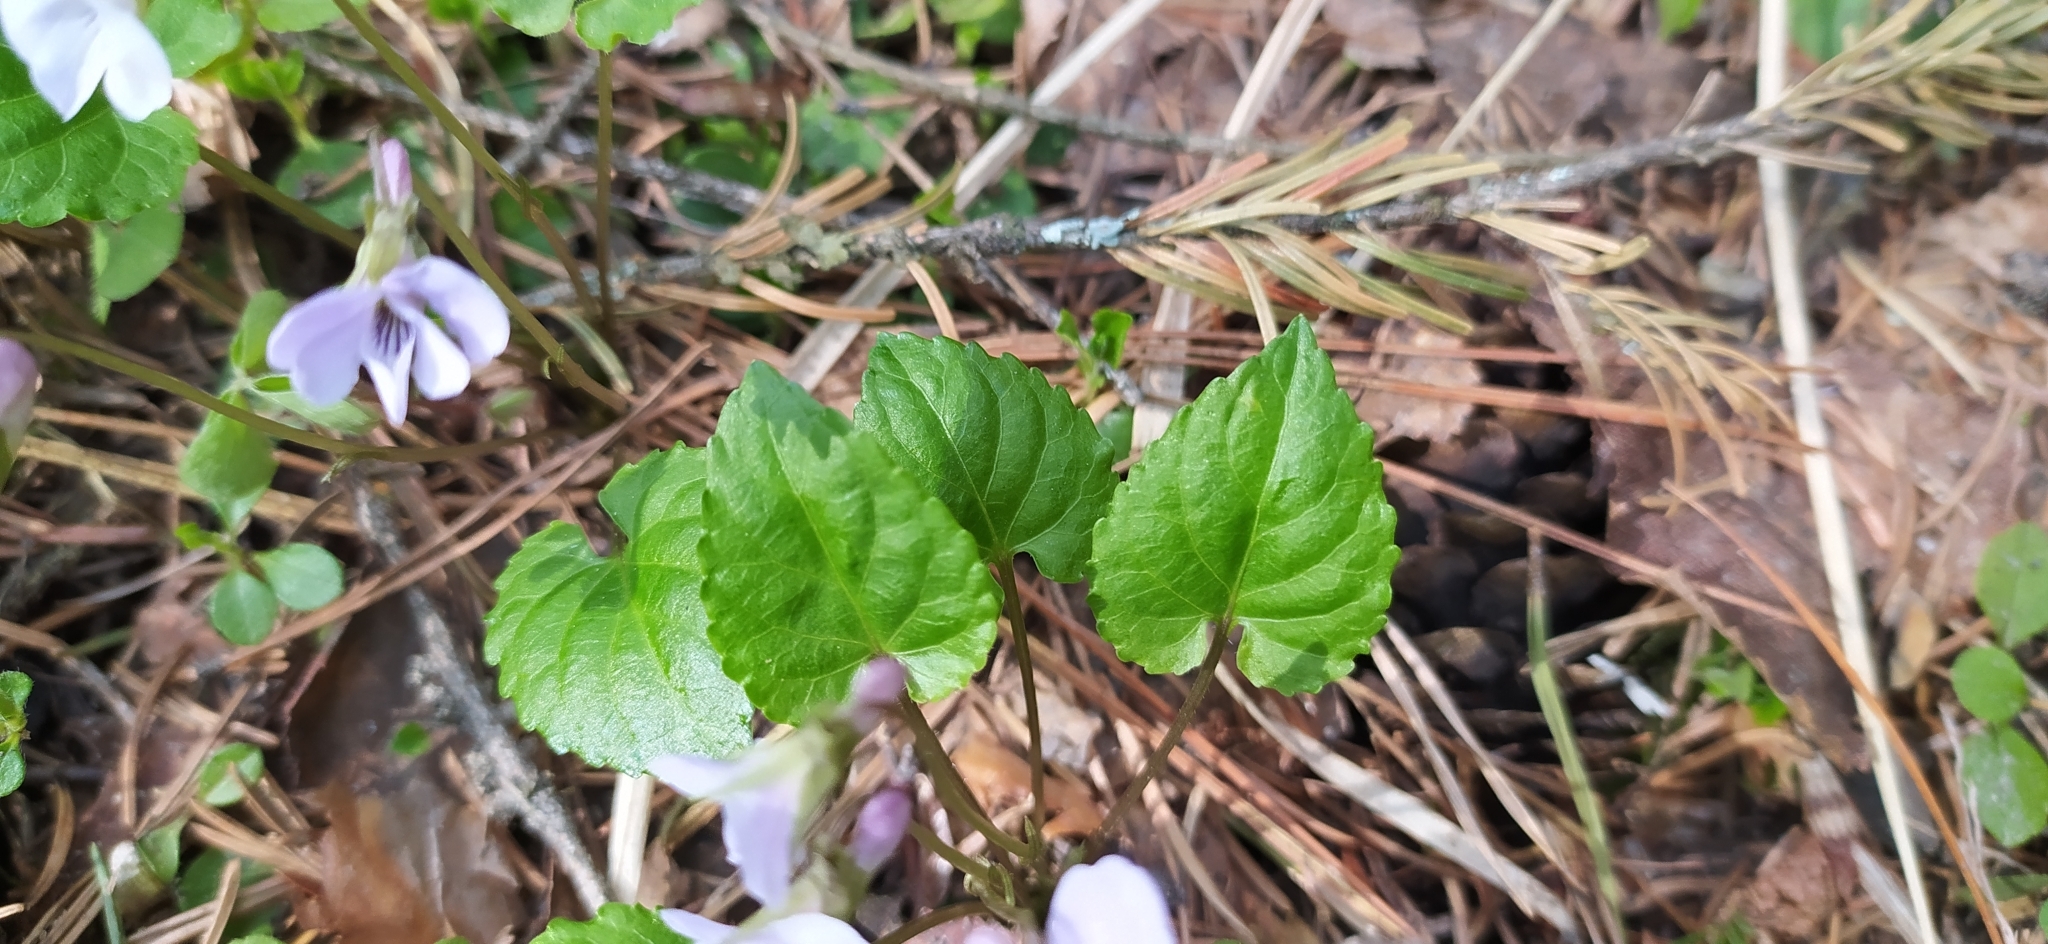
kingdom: Plantae
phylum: Tracheophyta
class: Magnoliopsida
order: Malpighiales
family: Violaceae
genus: Viola
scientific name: Viola selkirkii
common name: Selkirk's violet
